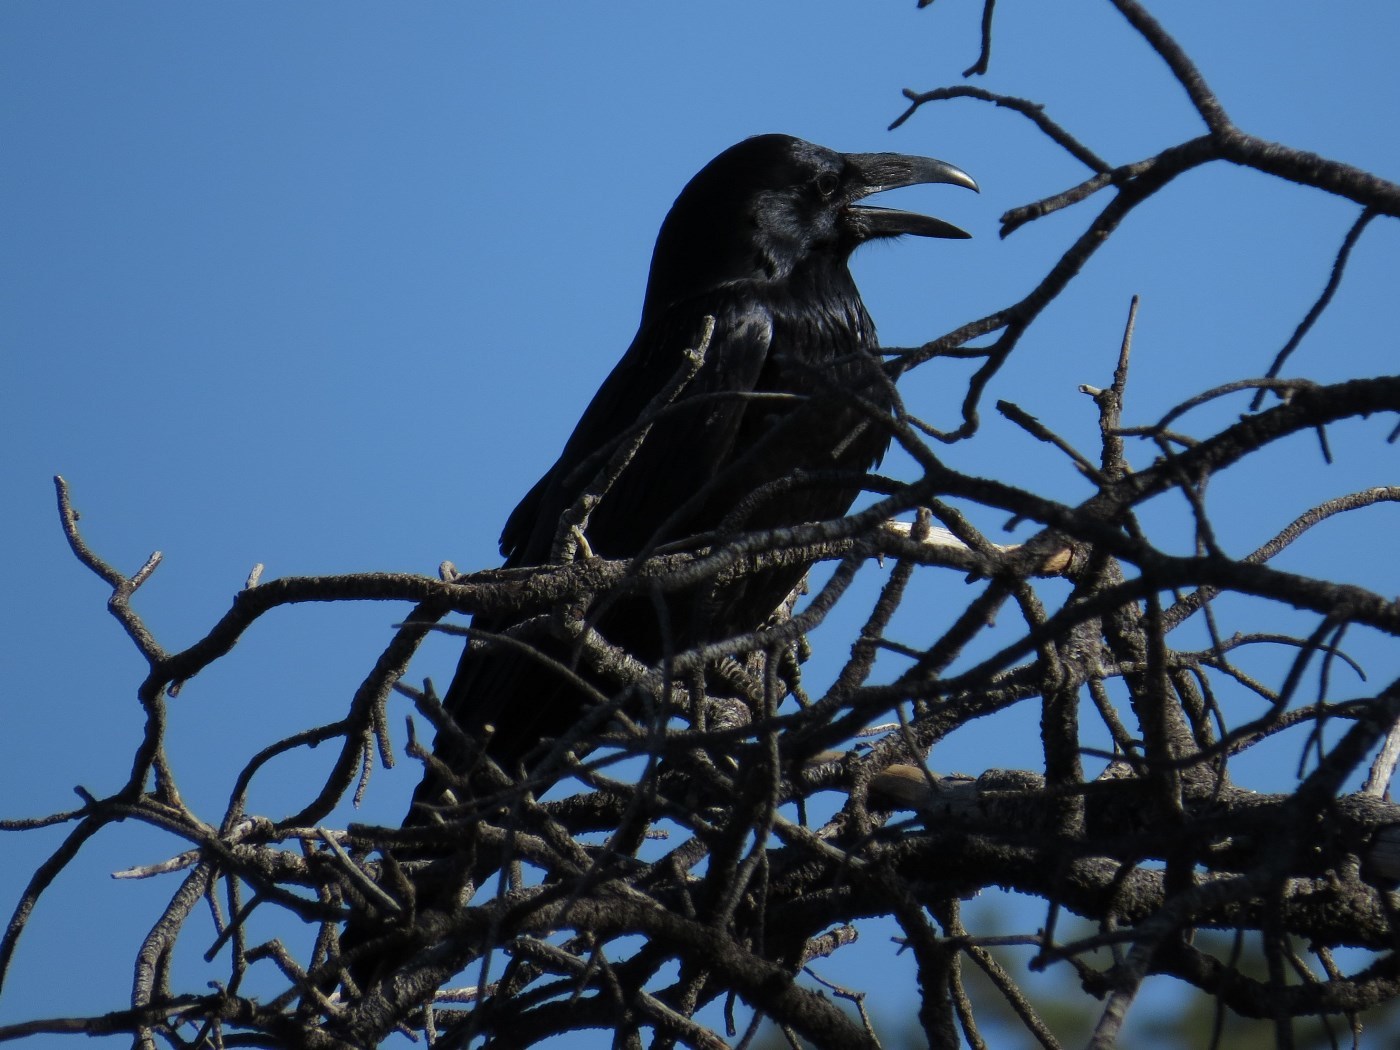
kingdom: Animalia
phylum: Chordata
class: Aves
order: Passeriformes
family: Corvidae
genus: Corvus
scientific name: Corvus corax
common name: Common raven
